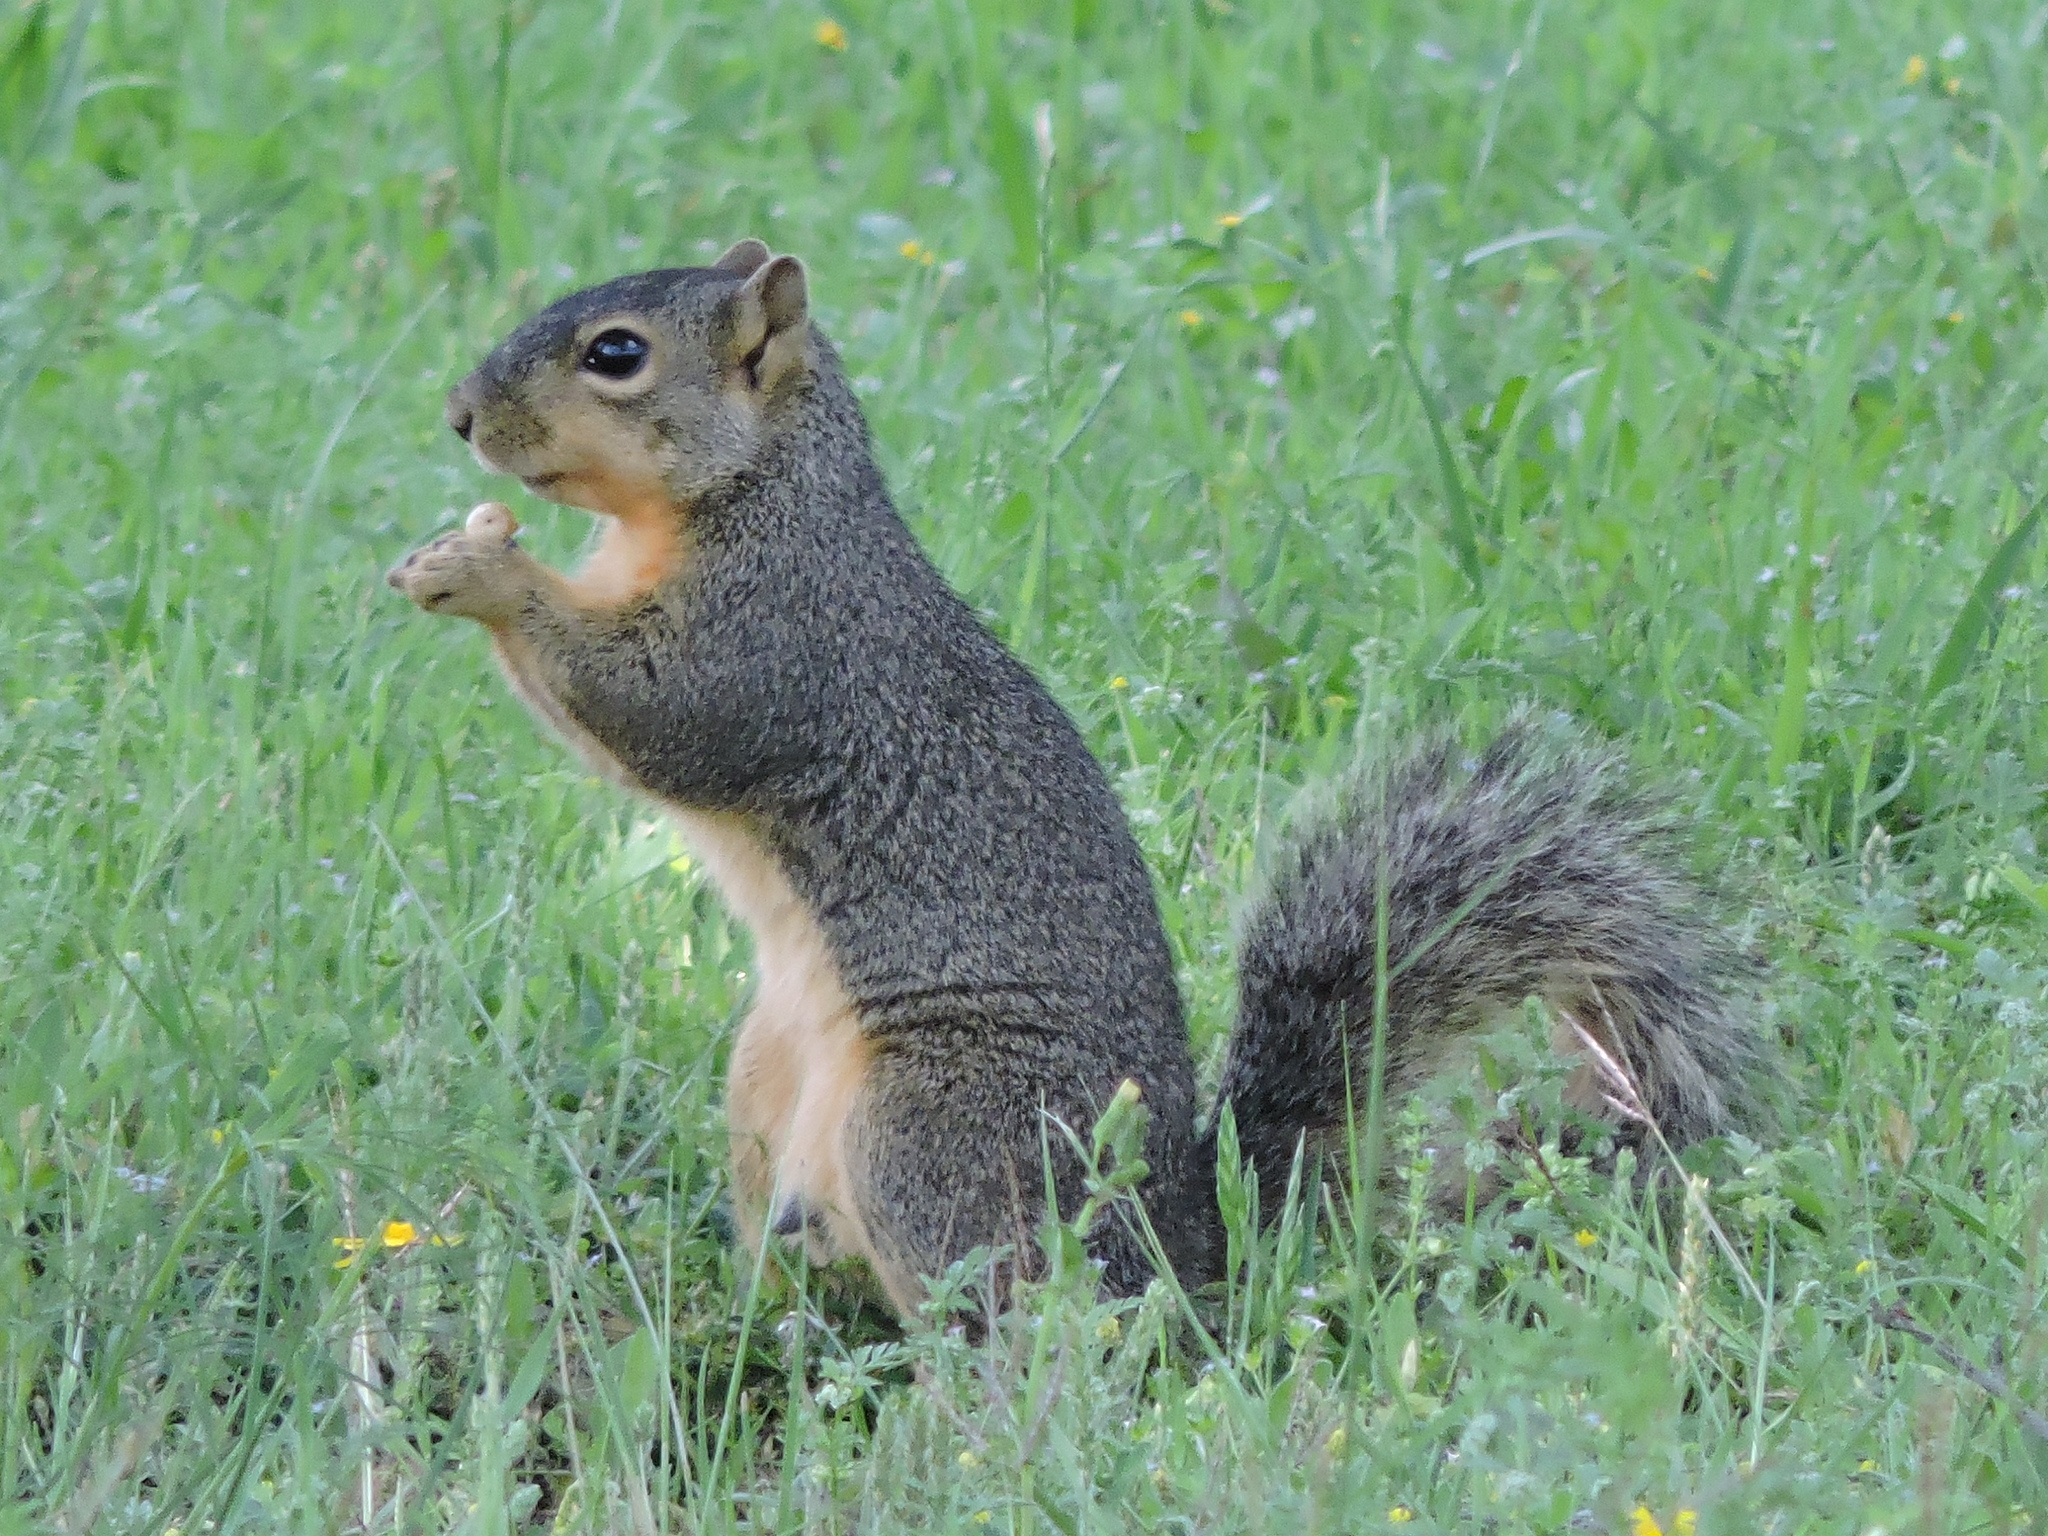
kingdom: Animalia
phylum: Chordata
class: Mammalia
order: Rodentia
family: Sciuridae
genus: Sciurus
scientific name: Sciurus niger
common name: Fox squirrel
